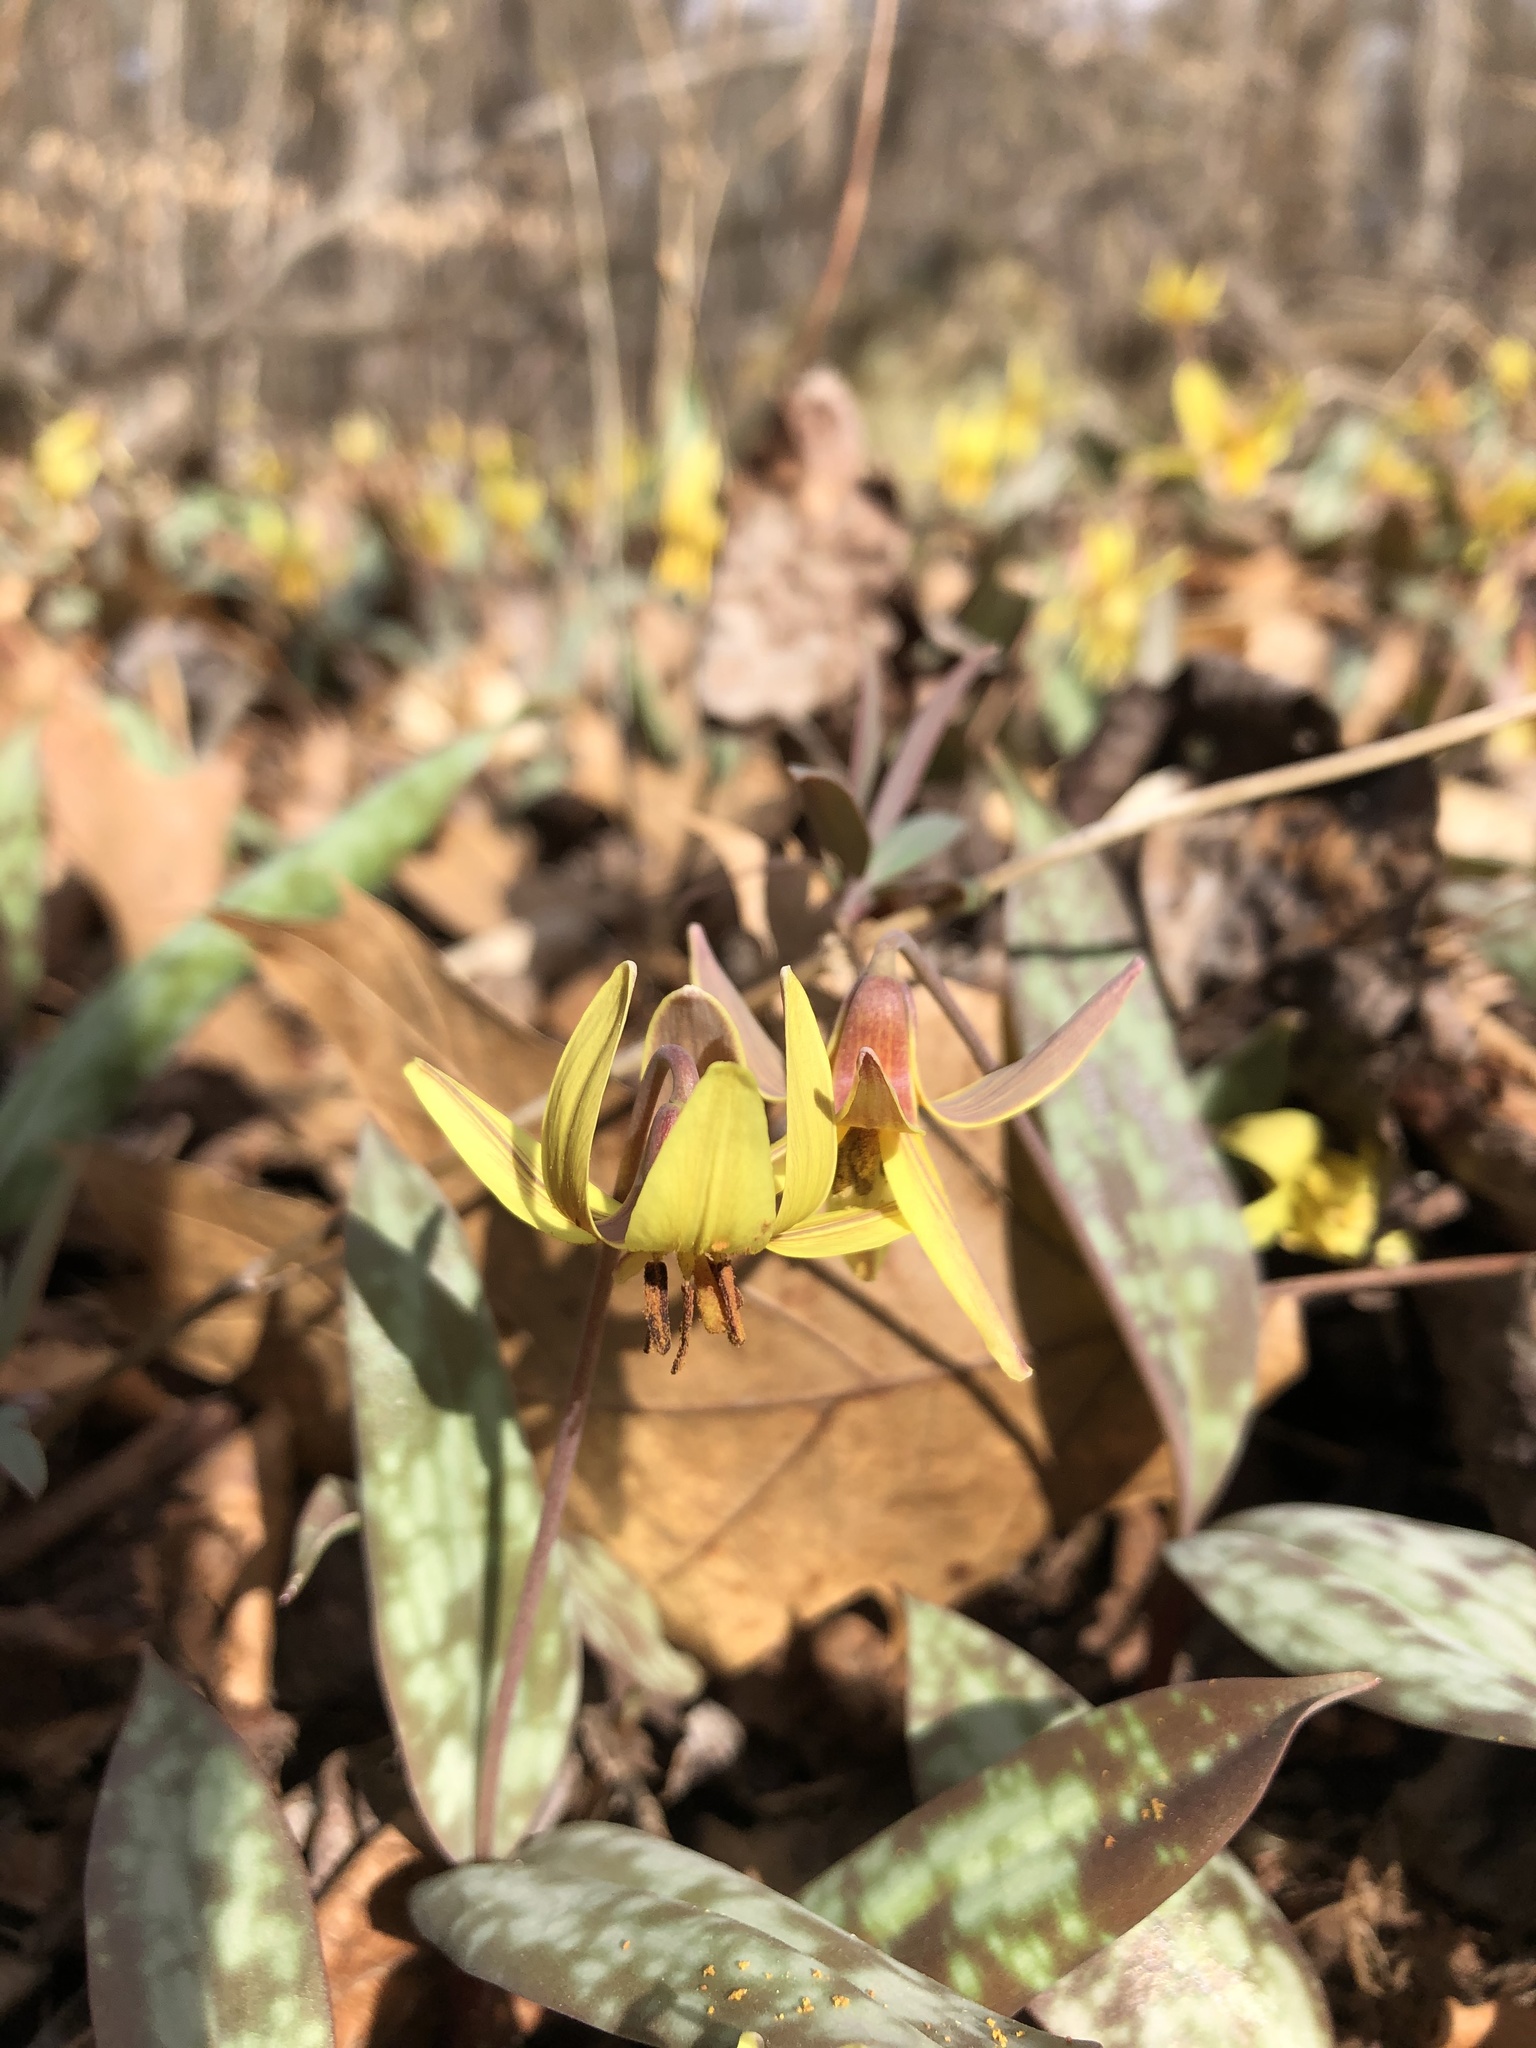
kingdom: Plantae
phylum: Tracheophyta
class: Liliopsida
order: Liliales
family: Liliaceae
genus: Erythronium
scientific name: Erythronium umbilicatum
